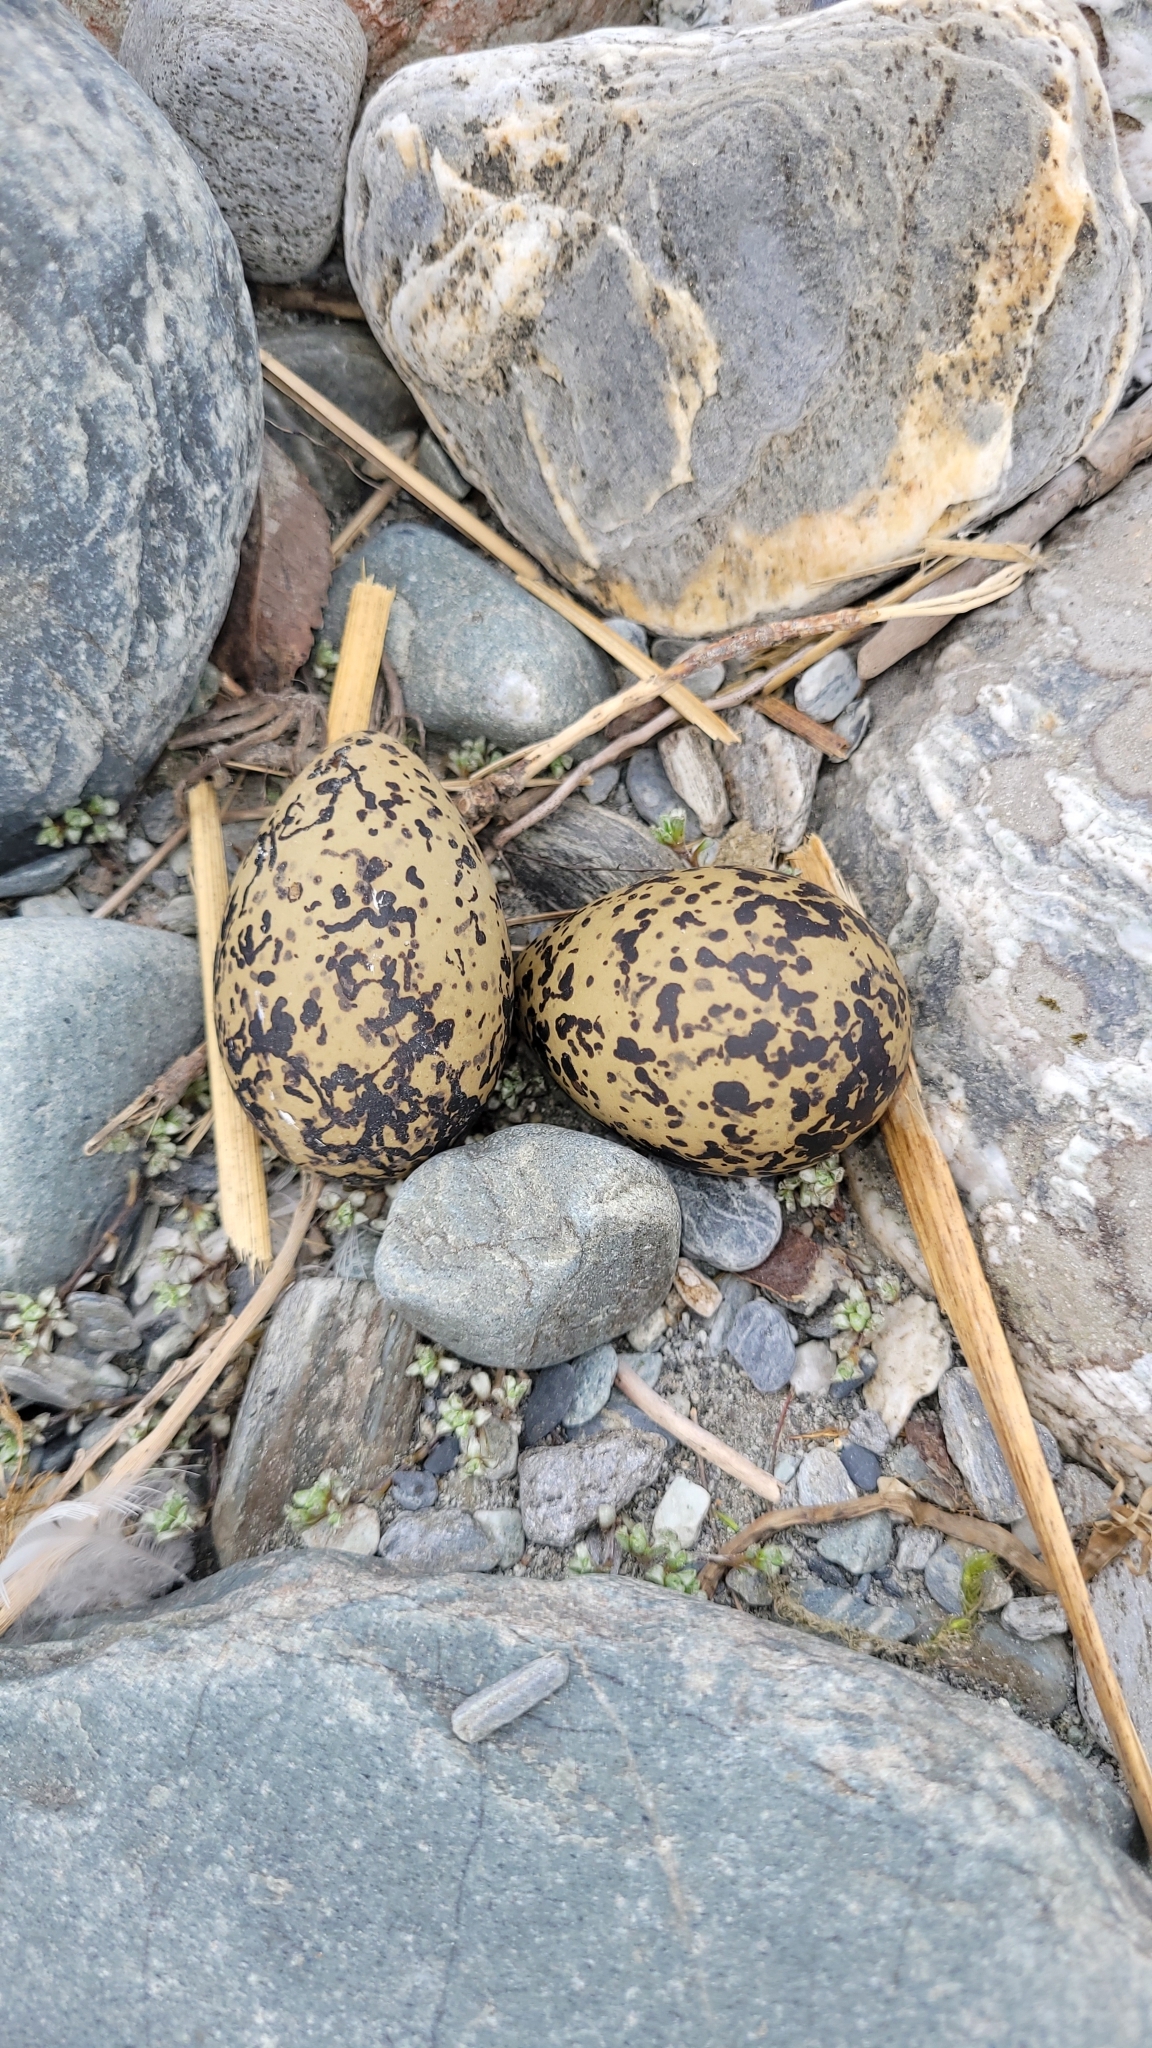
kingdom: Animalia
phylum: Chordata
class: Aves
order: Charadriiformes
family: Haematopodidae
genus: Haematopus
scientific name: Haematopus finschi
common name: South island oystercatcher
